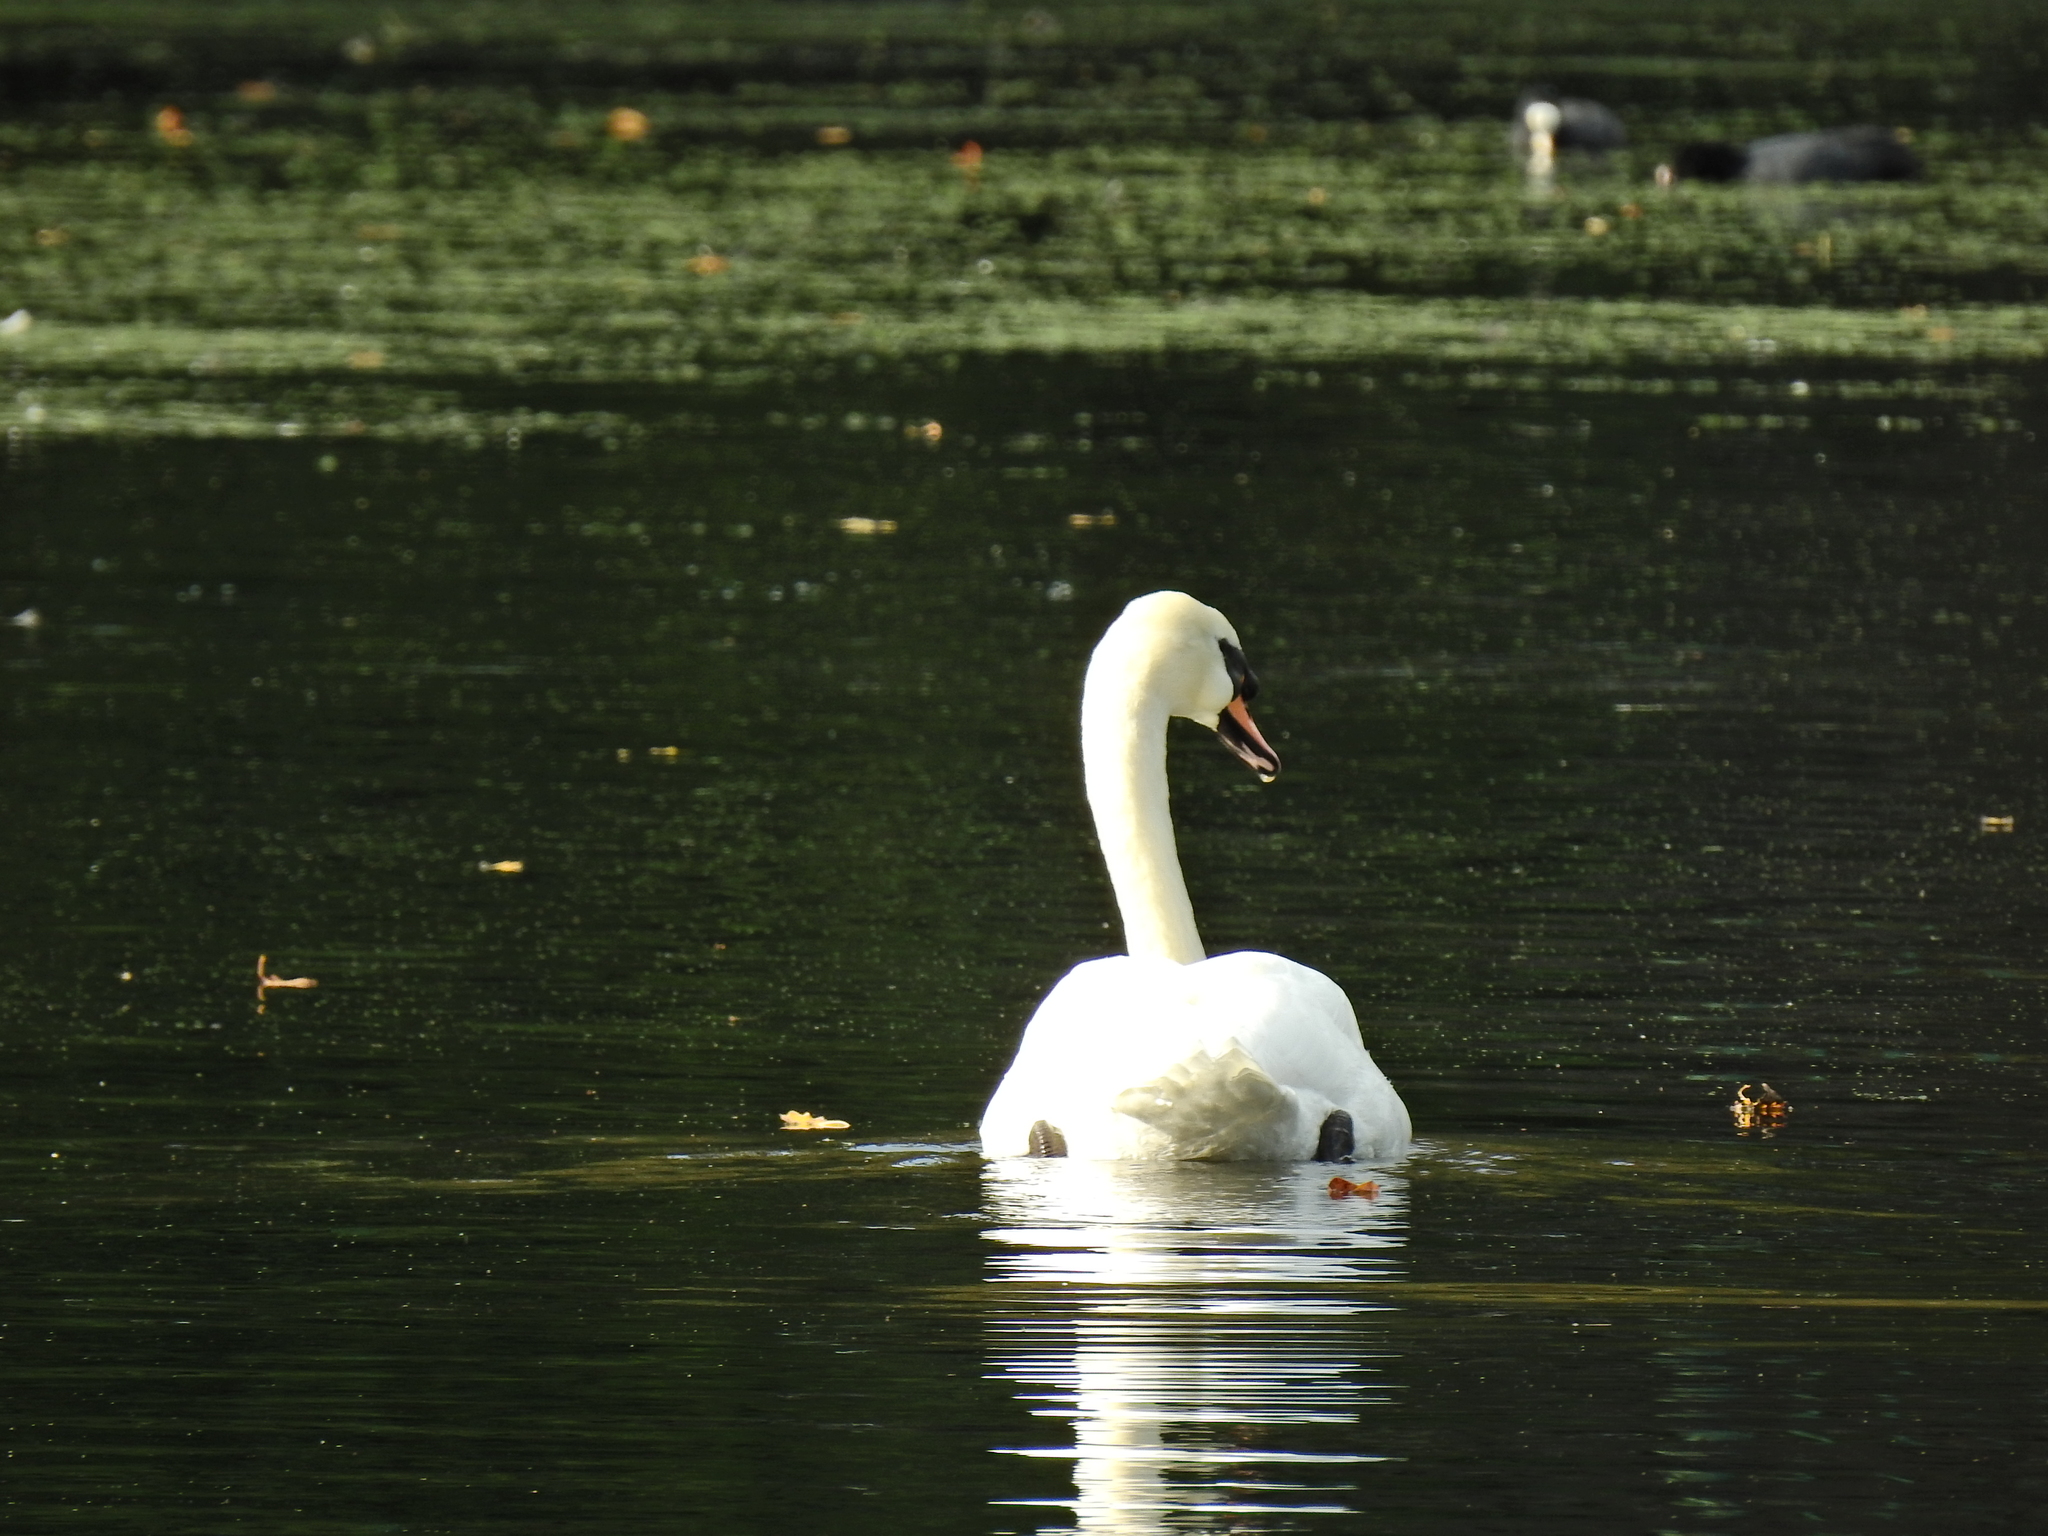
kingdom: Animalia
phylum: Chordata
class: Aves
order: Anseriformes
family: Anatidae
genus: Cygnus
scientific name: Cygnus olor
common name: Mute swan
